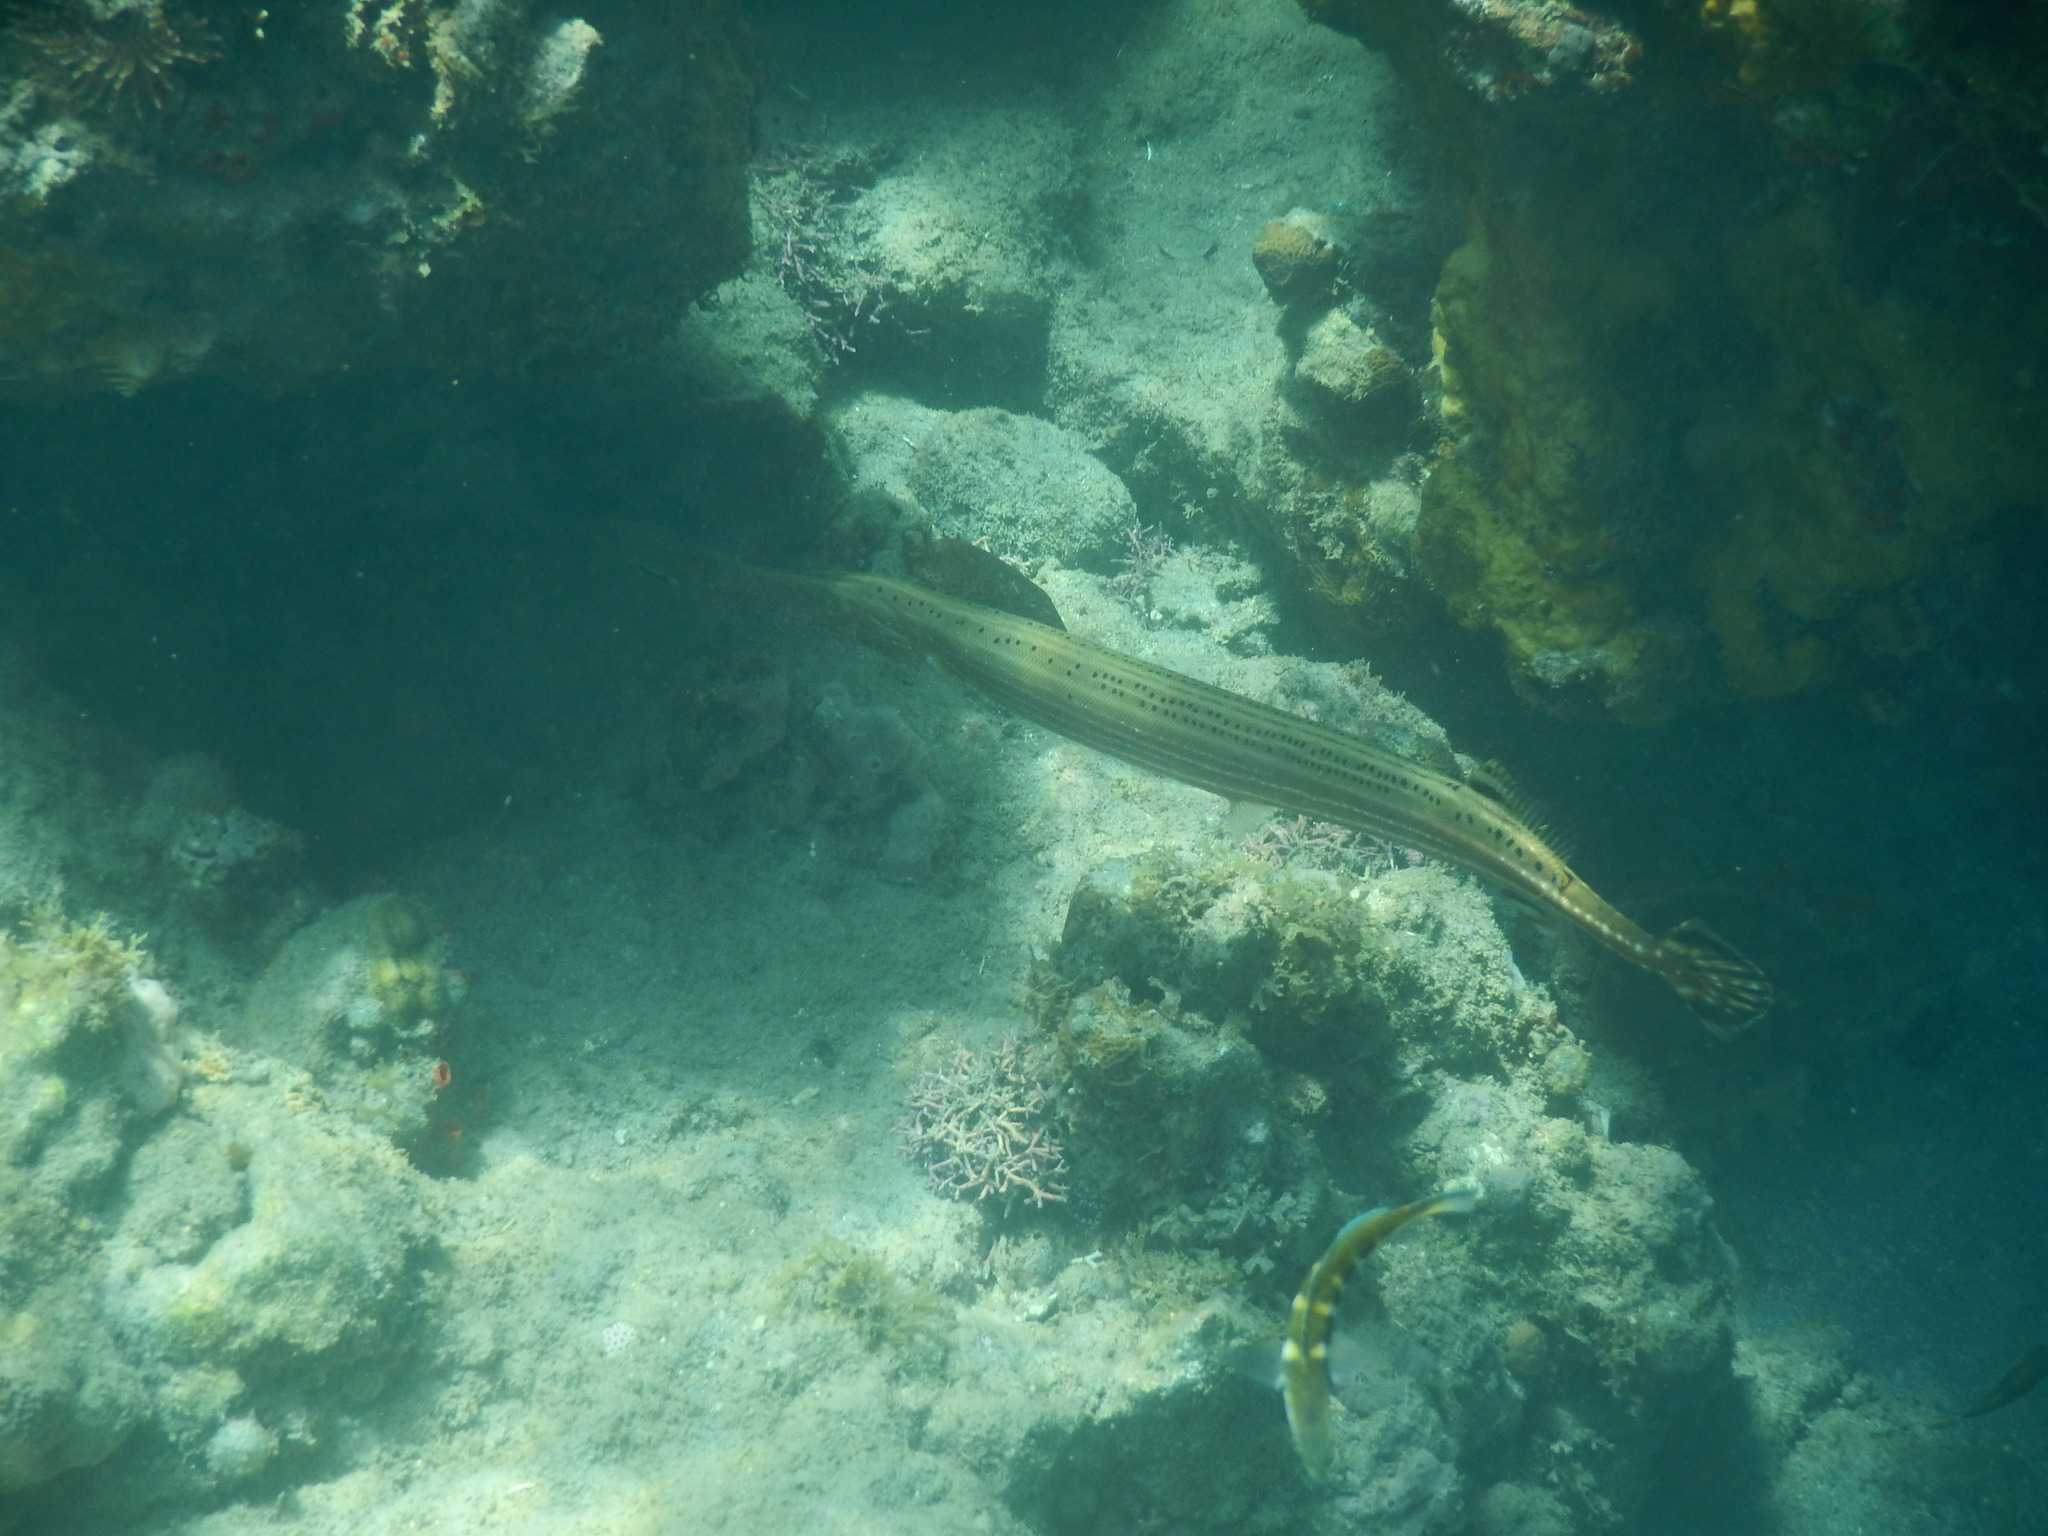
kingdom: Animalia
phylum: Chordata
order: Syngnathiformes
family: Aulostomidae
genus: Aulostomus
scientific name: Aulostomus maculatus
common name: West atlantic trumpetfish
